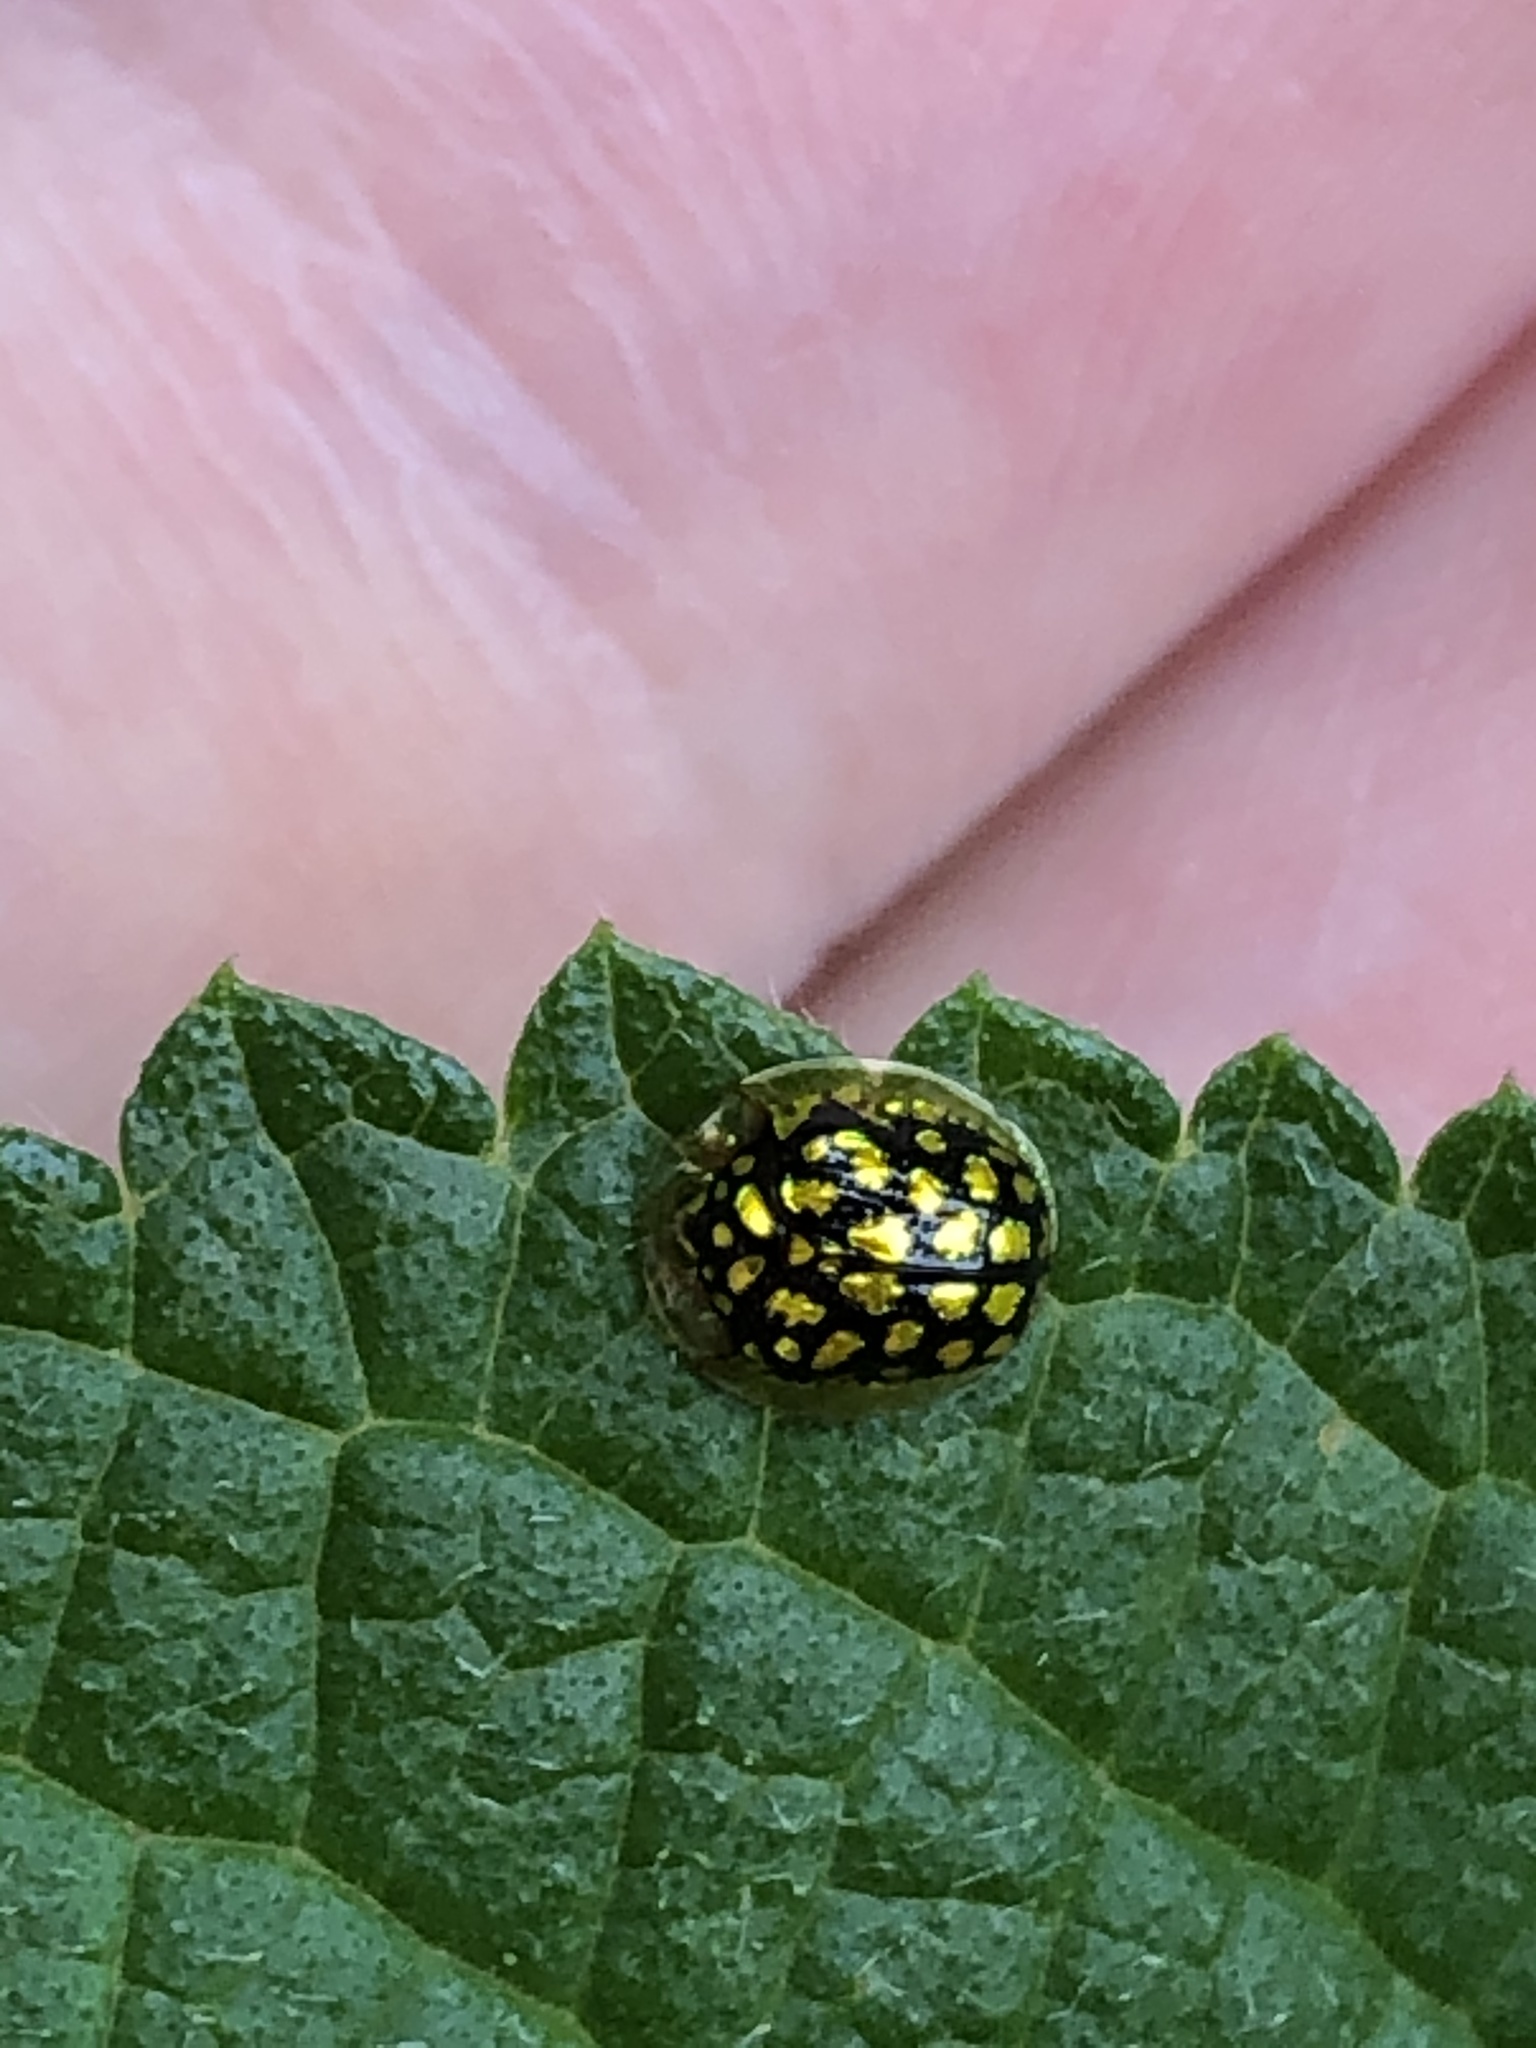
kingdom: Animalia
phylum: Arthropoda
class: Insecta
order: Coleoptera
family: Chrysomelidae
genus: Charidotis
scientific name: Charidotis auroguttata
